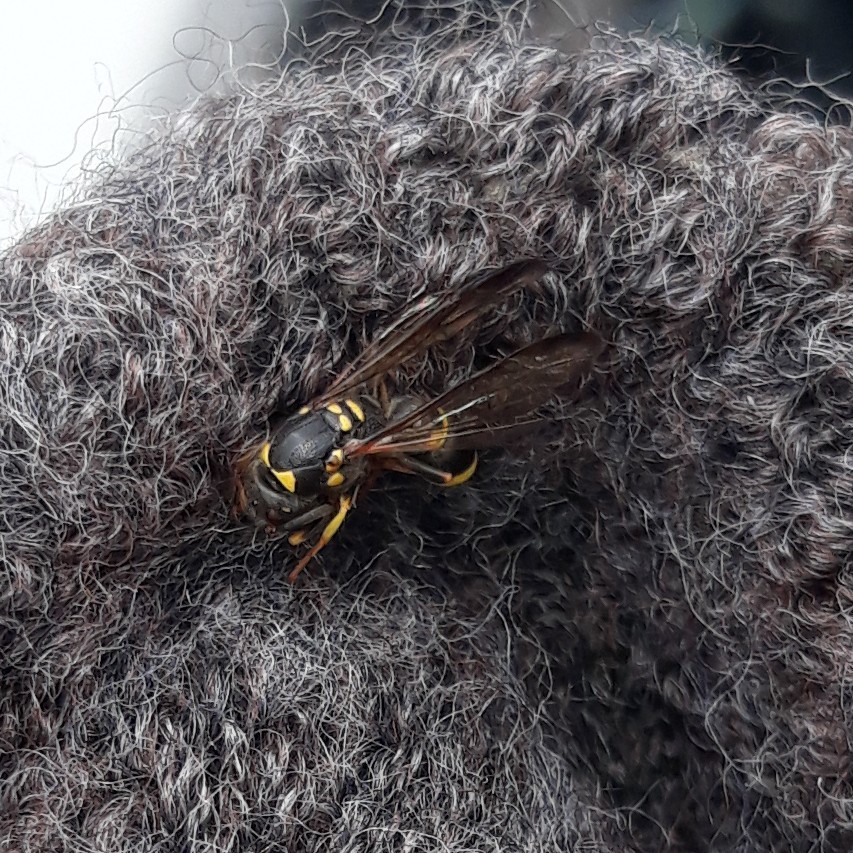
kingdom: Animalia
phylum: Arthropoda
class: Insecta
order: Hymenoptera
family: Vespidae
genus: Ancistrocerus
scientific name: Ancistrocerus campestris
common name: Smiling mason wasp
